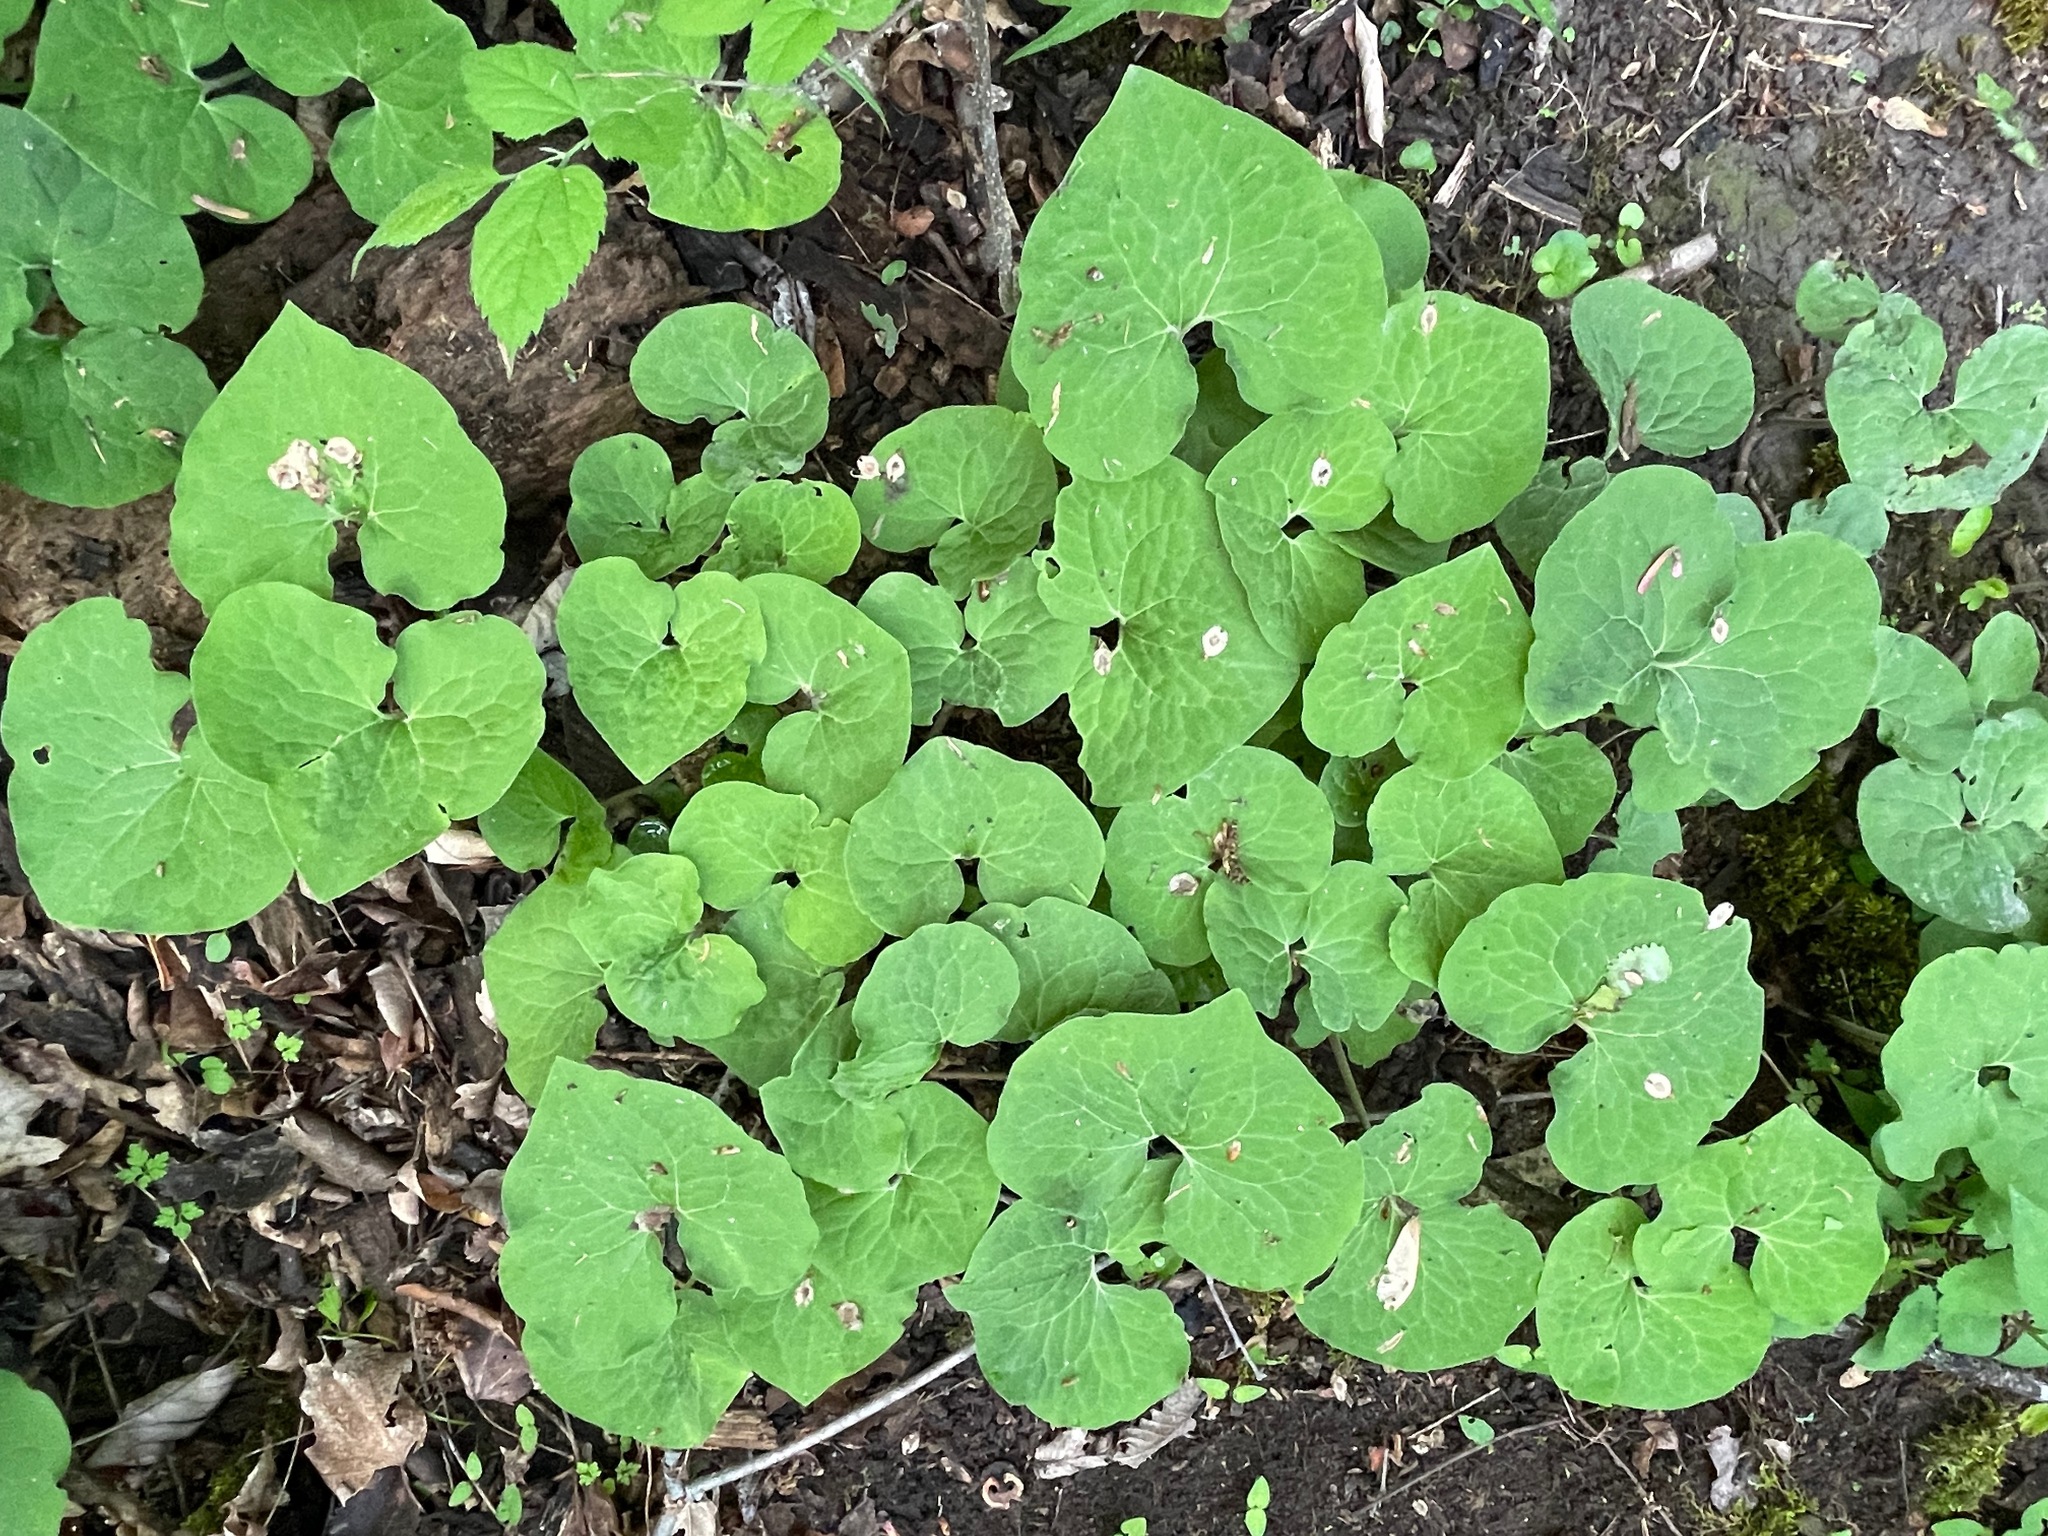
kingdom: Plantae
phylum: Tracheophyta
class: Magnoliopsida
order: Piperales
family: Aristolochiaceae
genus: Asarum
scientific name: Asarum canadense
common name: Wild ginger
